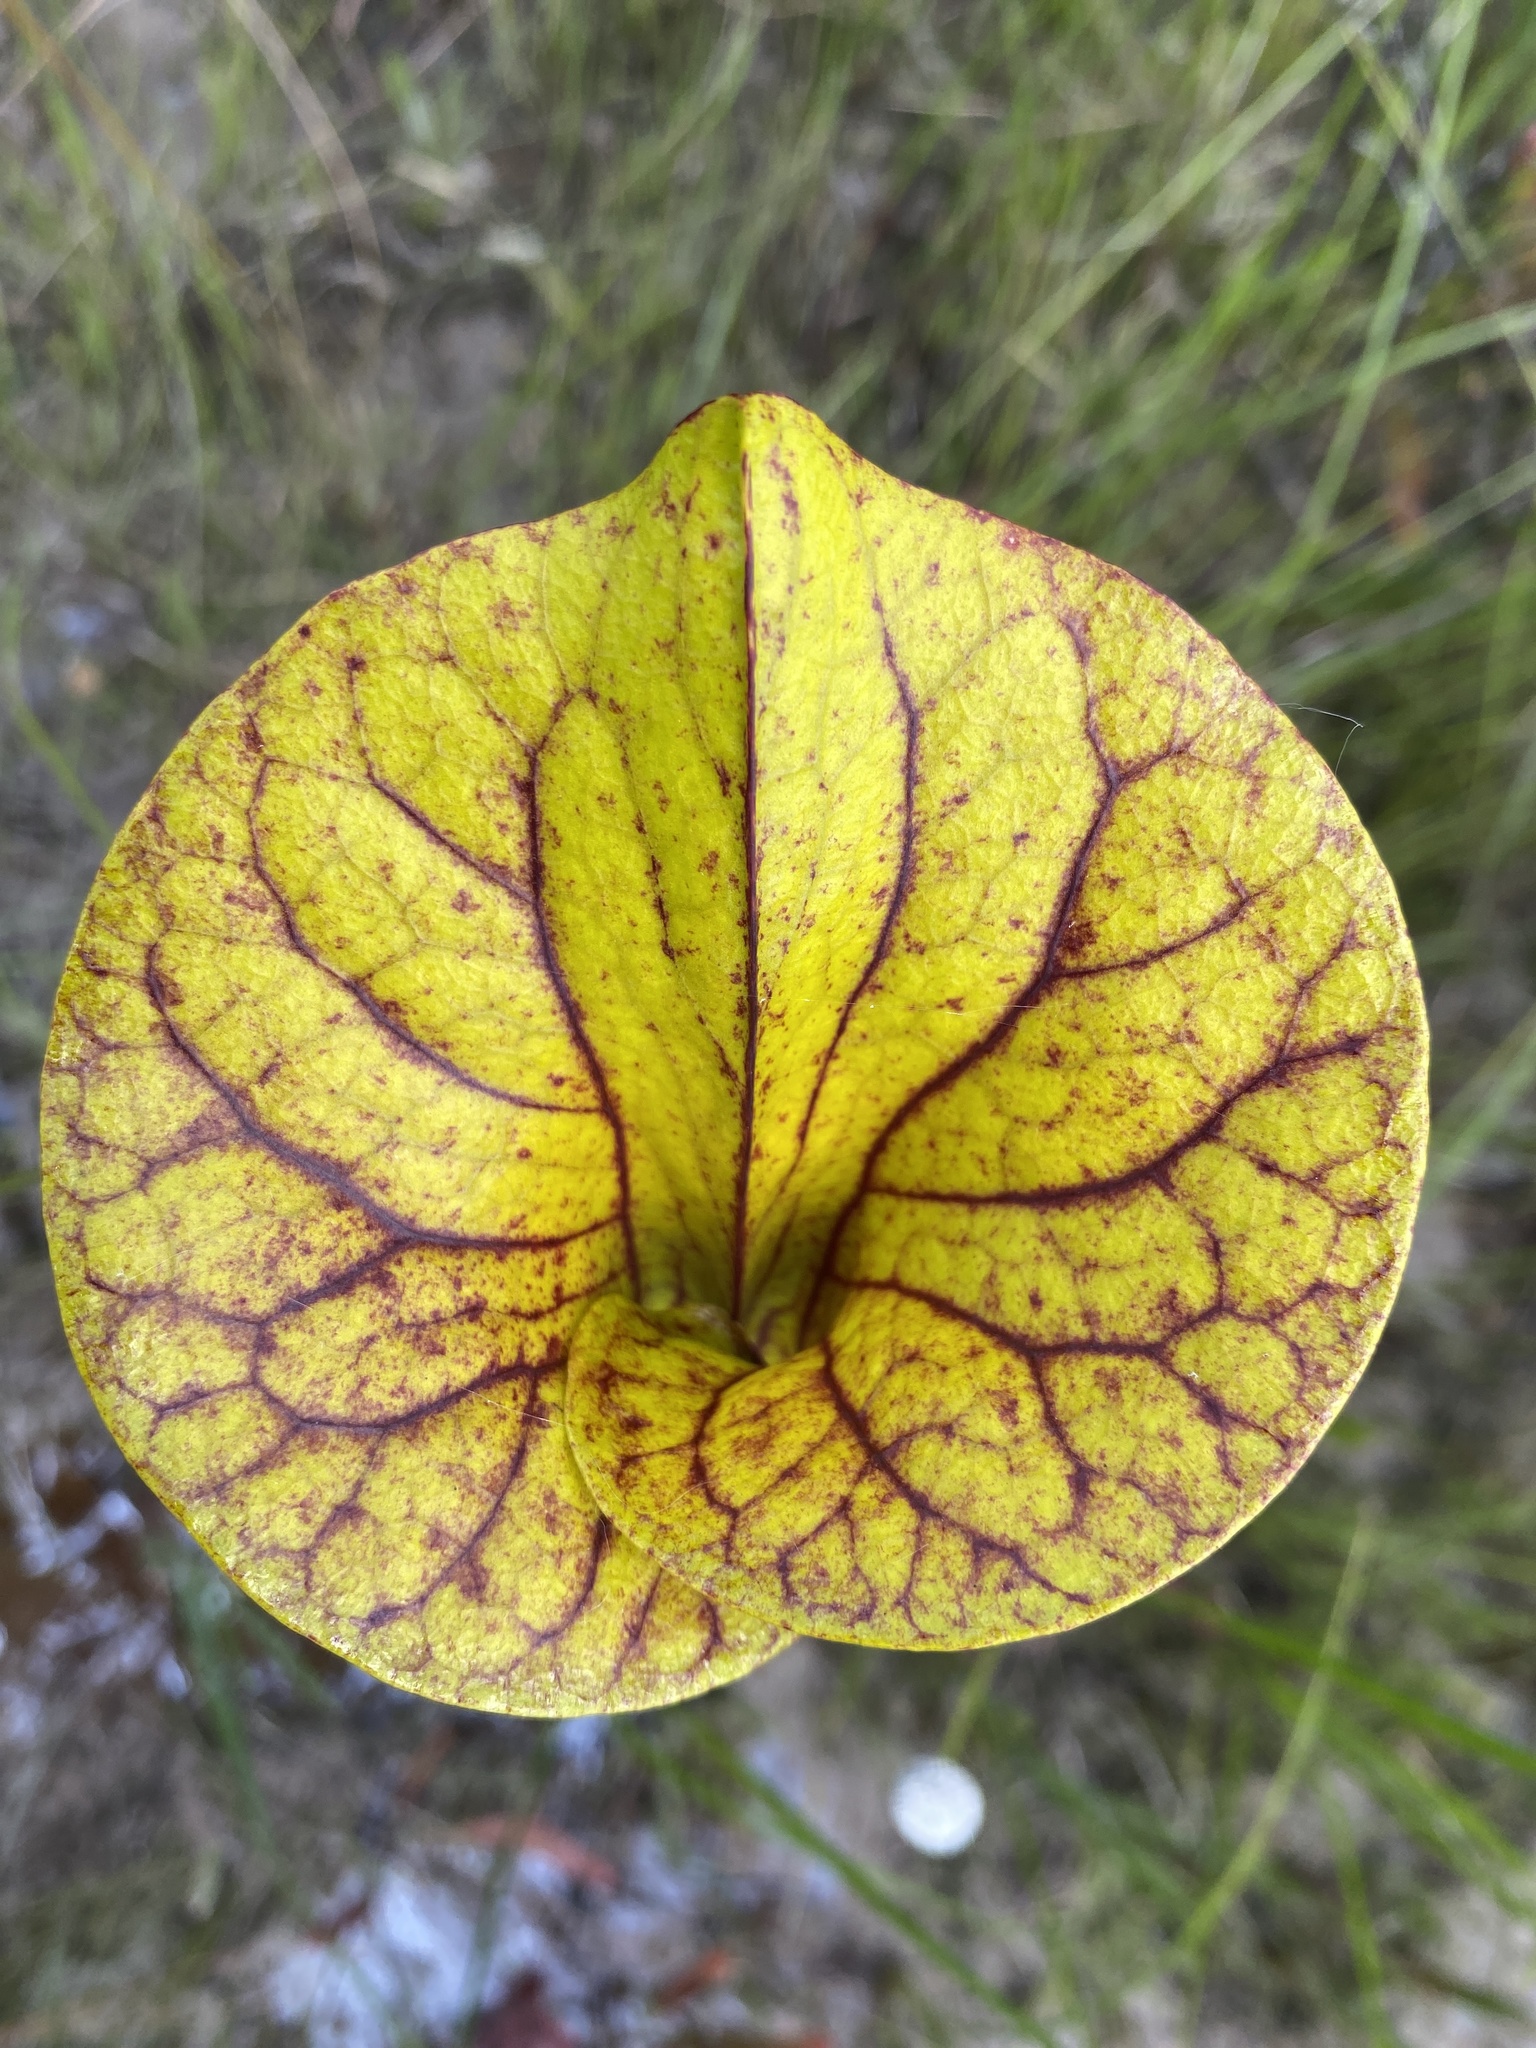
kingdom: Plantae
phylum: Tracheophyta
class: Magnoliopsida
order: Ericales
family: Sarraceniaceae
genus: Sarracenia
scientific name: Sarracenia flava
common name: Trumpets
